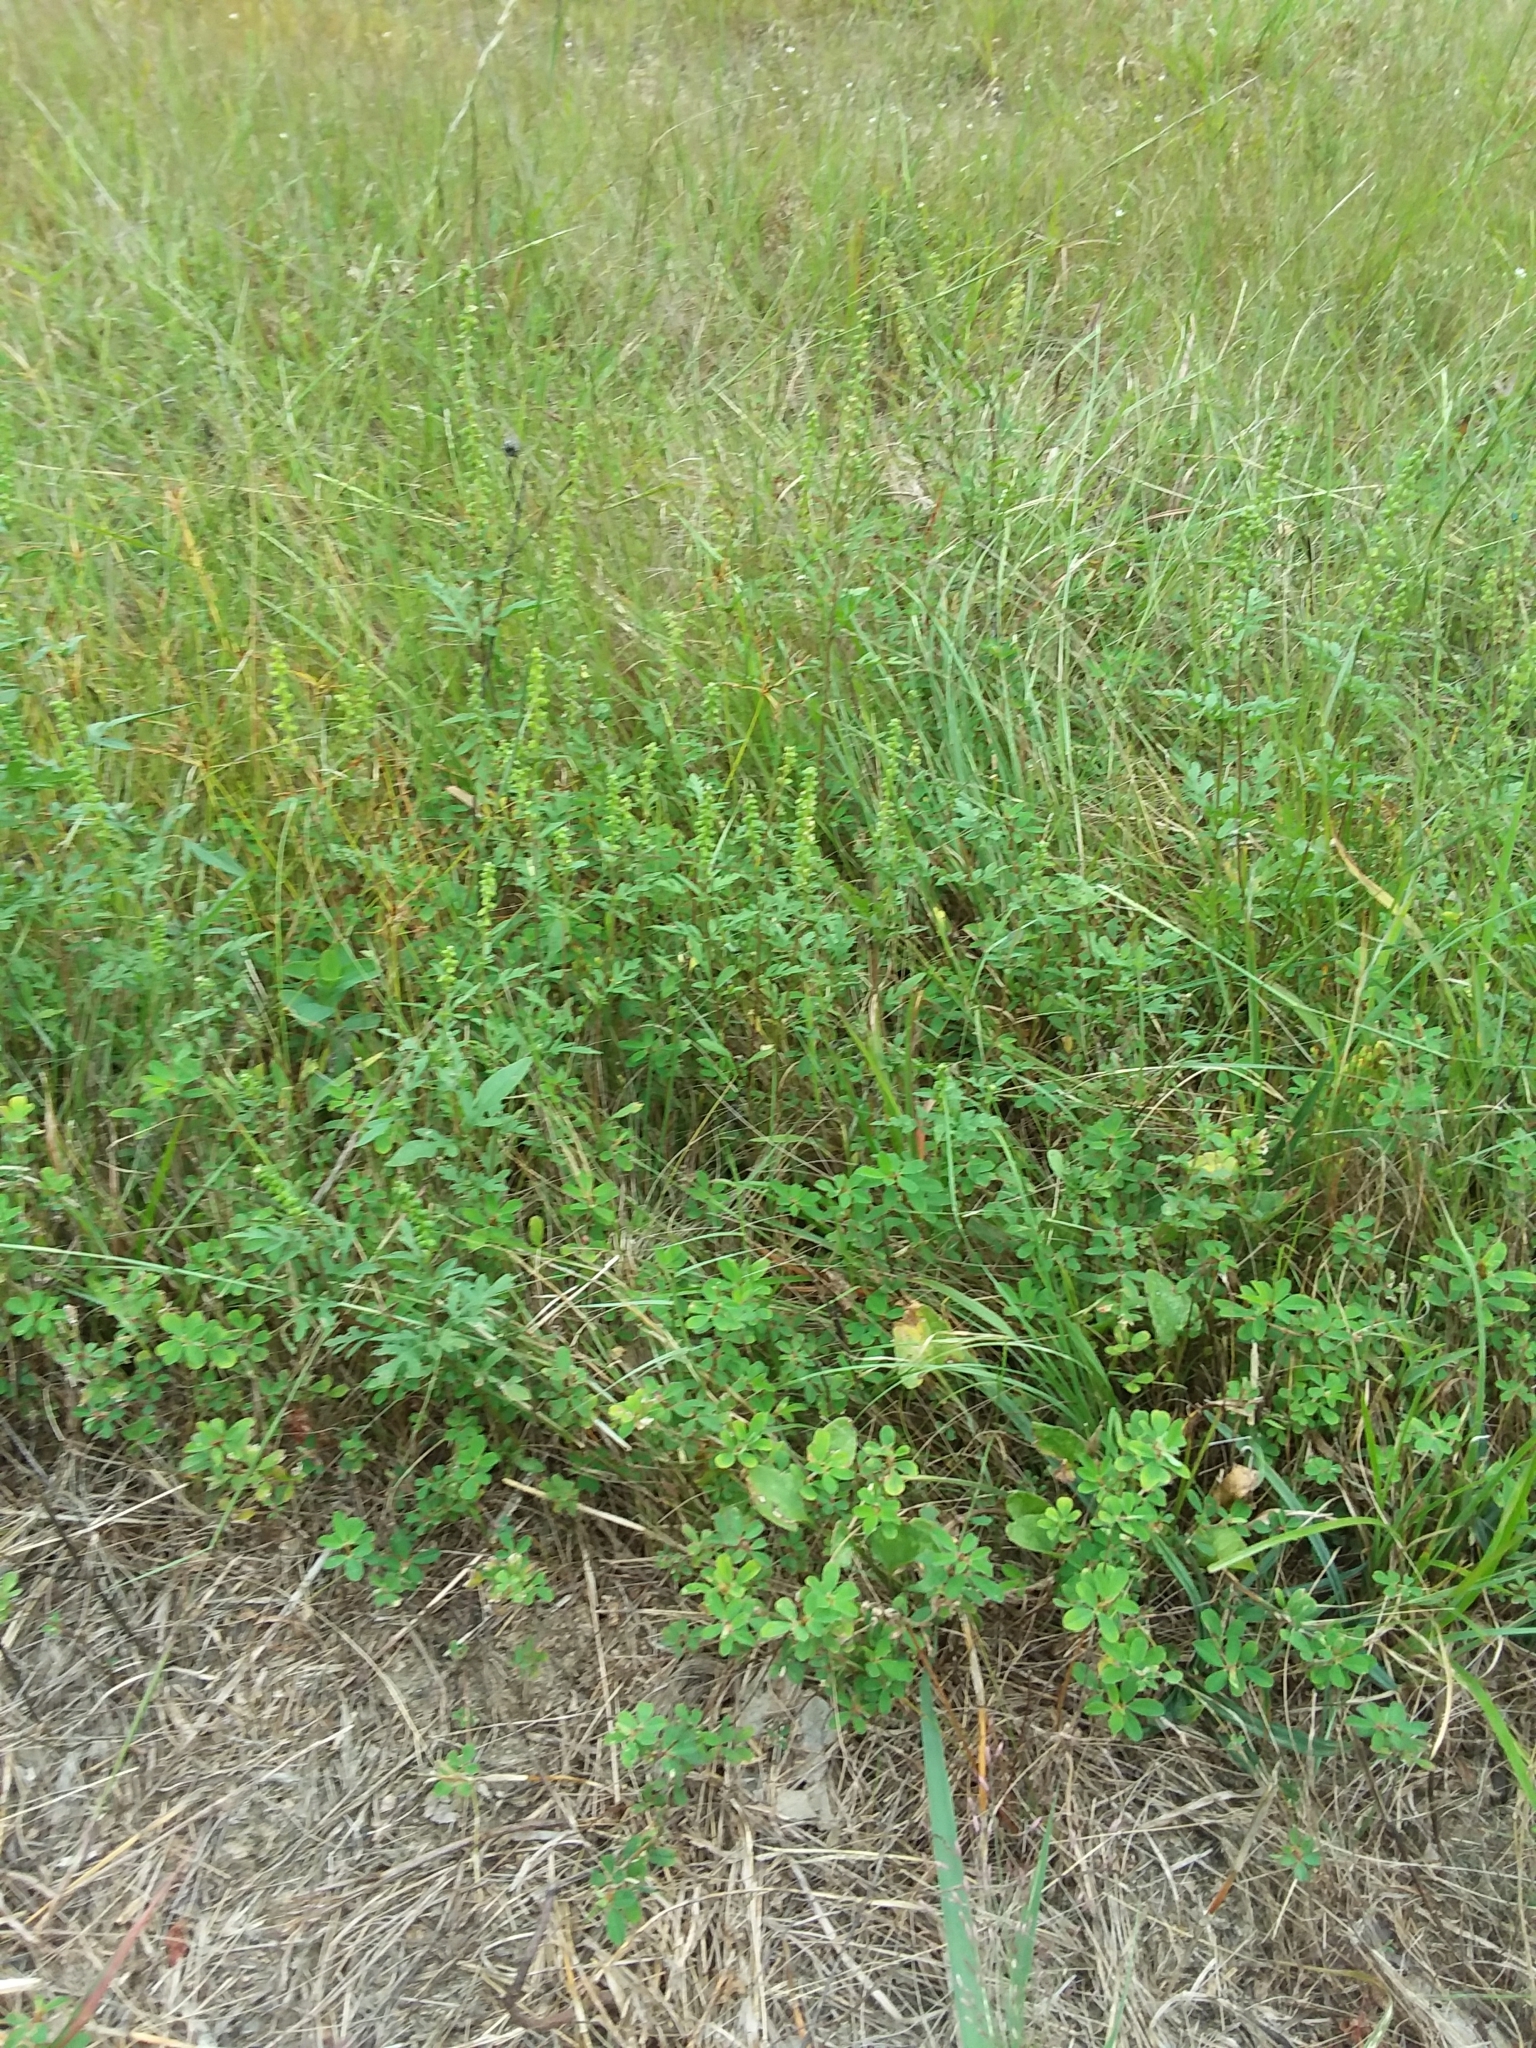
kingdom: Plantae
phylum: Tracheophyta
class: Magnoliopsida
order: Asterales
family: Asteraceae
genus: Ambrosia
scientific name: Ambrosia artemisiifolia
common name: Annual ragweed
